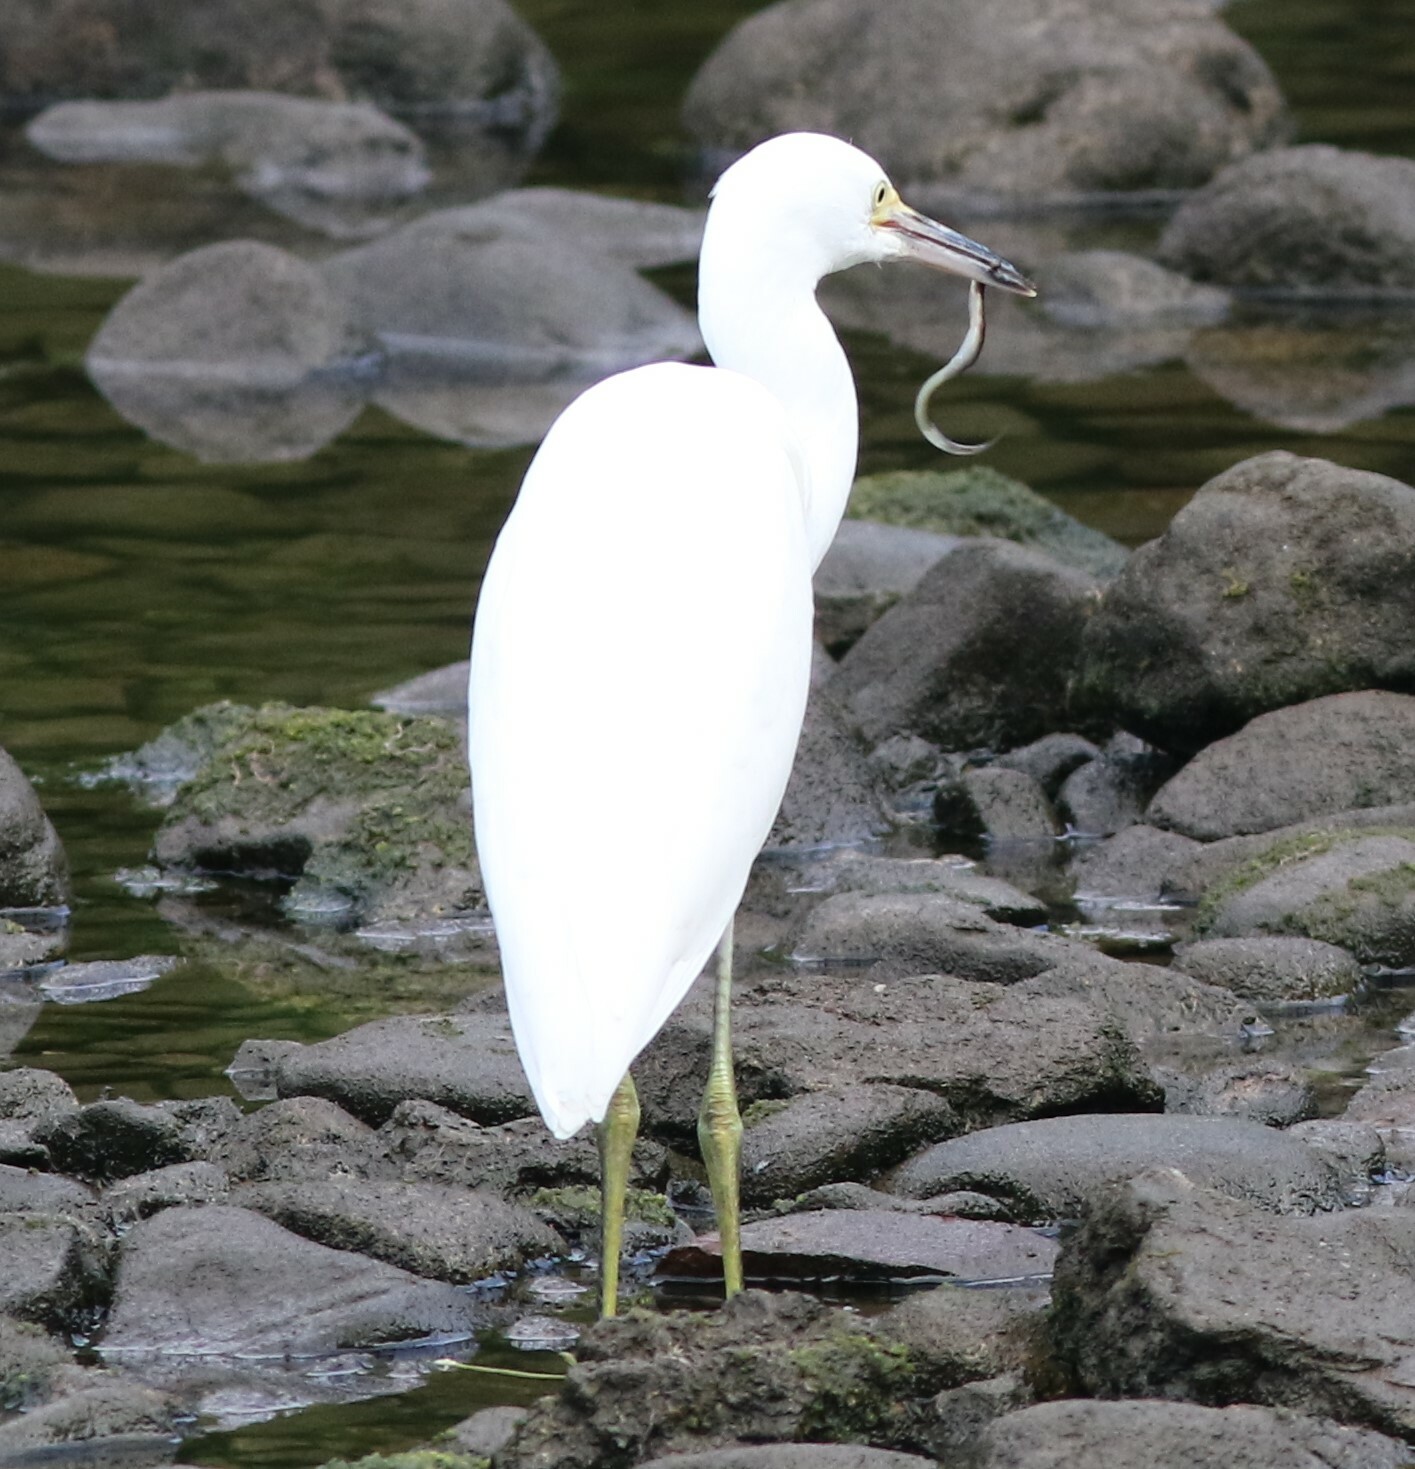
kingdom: Animalia
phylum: Chordata
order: Anguilliformes
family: Anguillidae
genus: Anguilla
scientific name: Anguilla rostrata
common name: American eel
